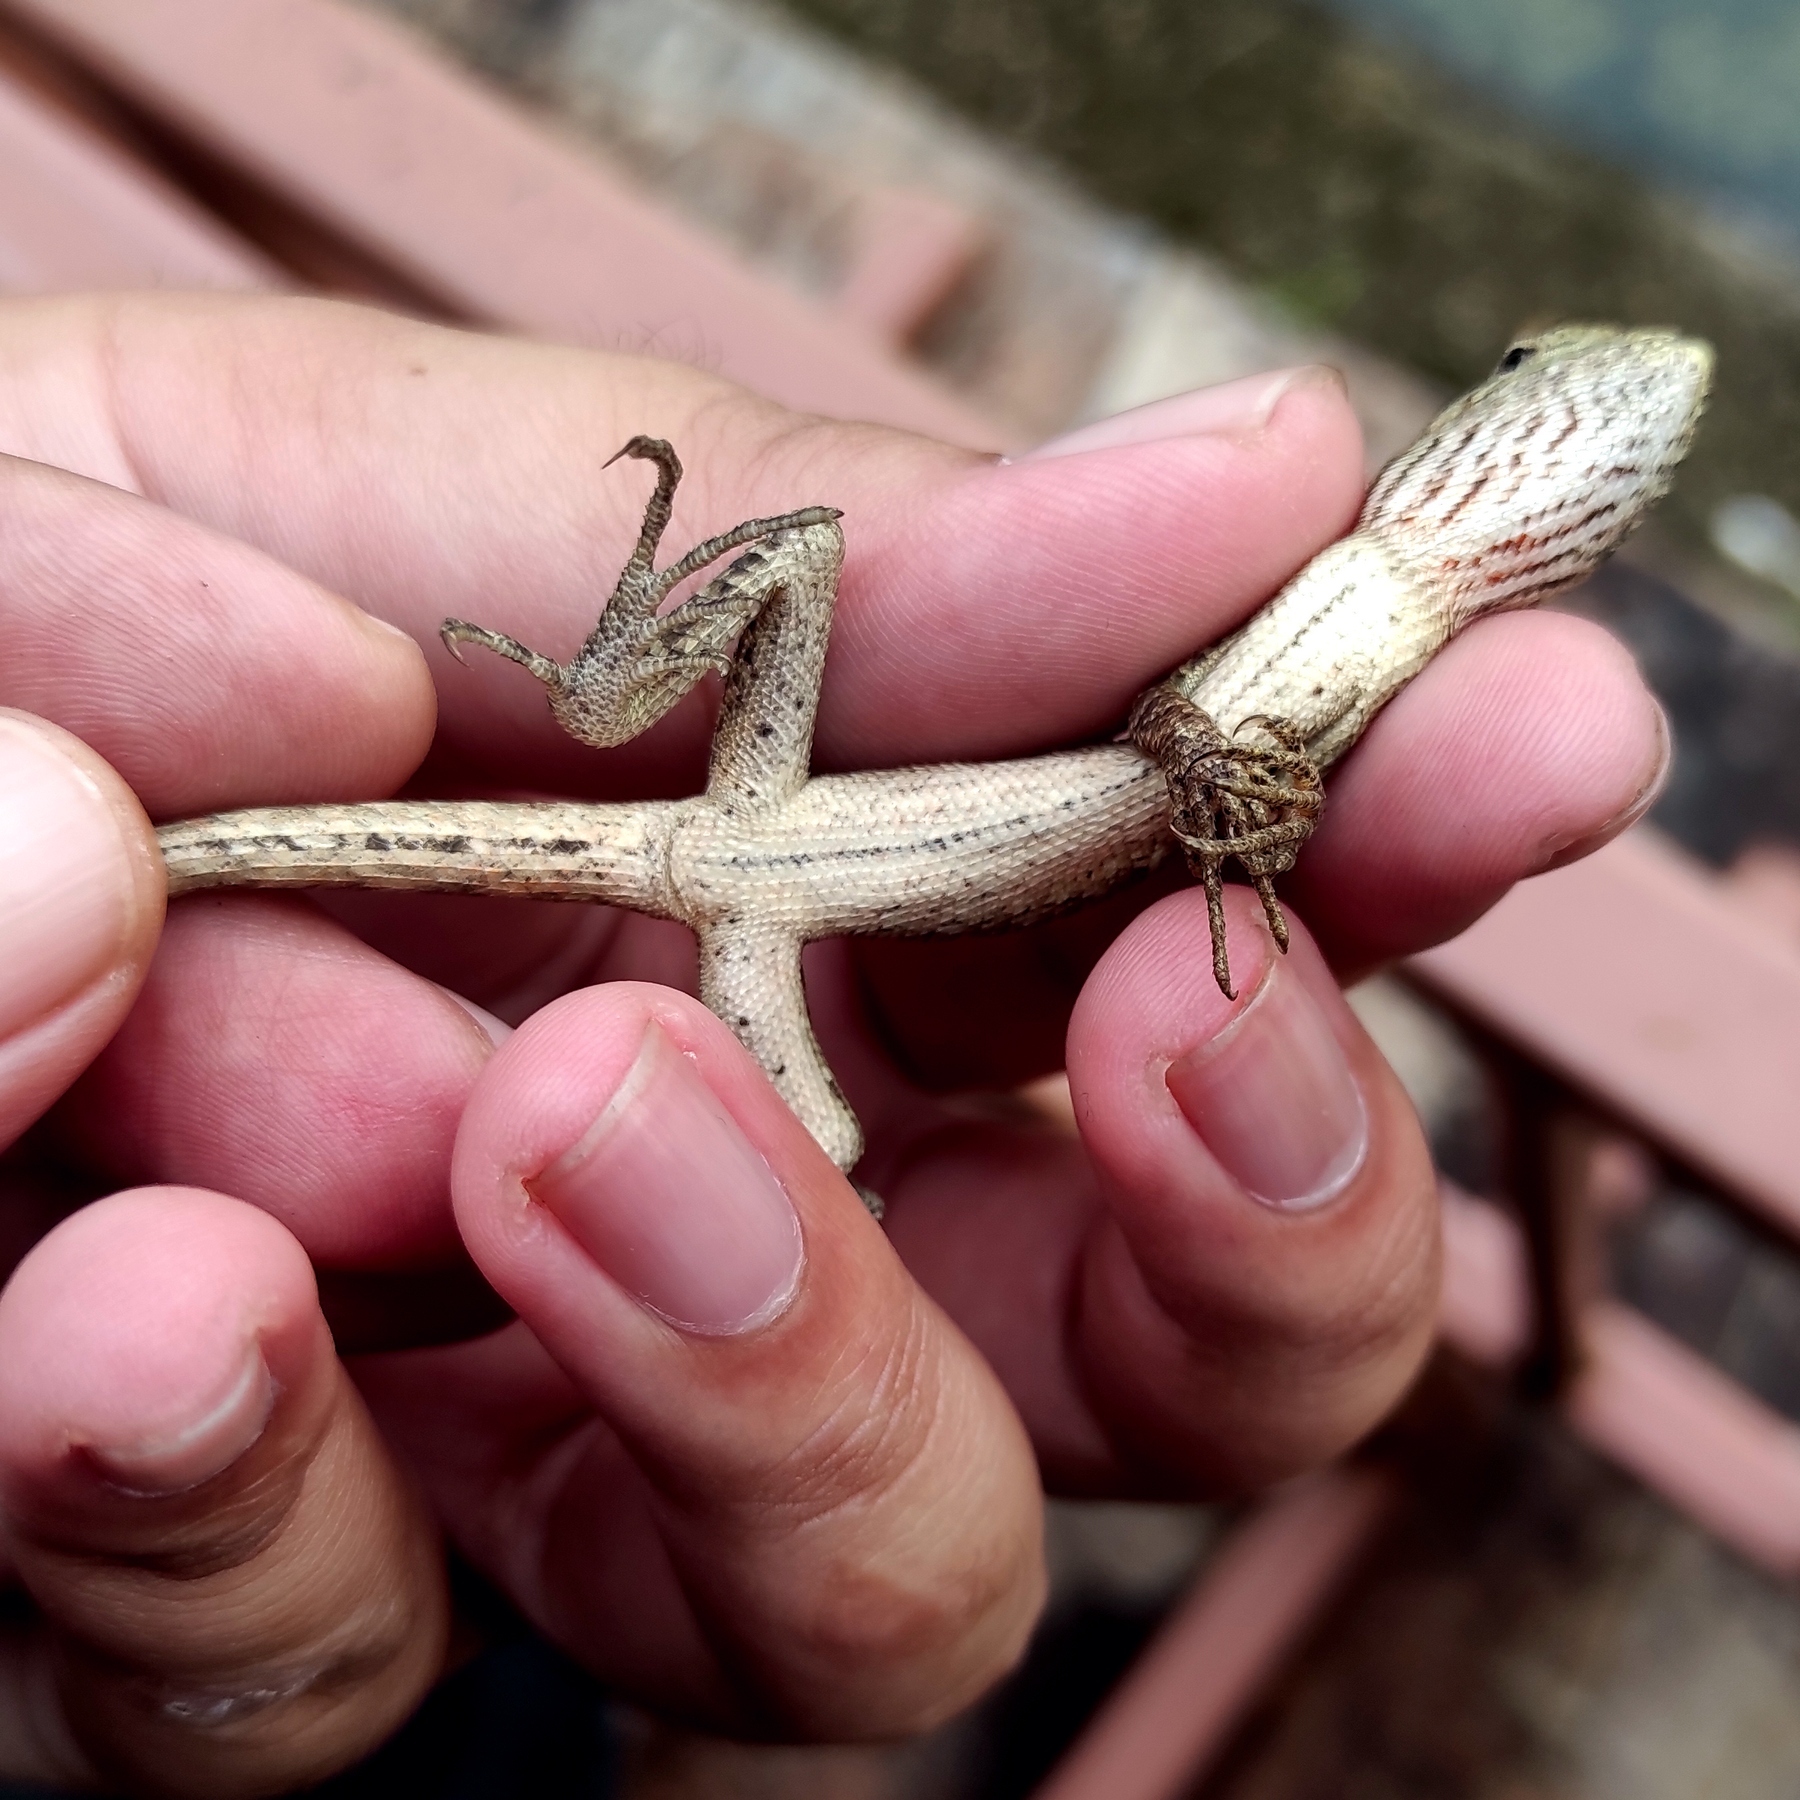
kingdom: Animalia
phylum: Chordata
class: Squamata
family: Agamidae
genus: Calotes
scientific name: Calotes versicolor
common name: Oriental garden lizard
